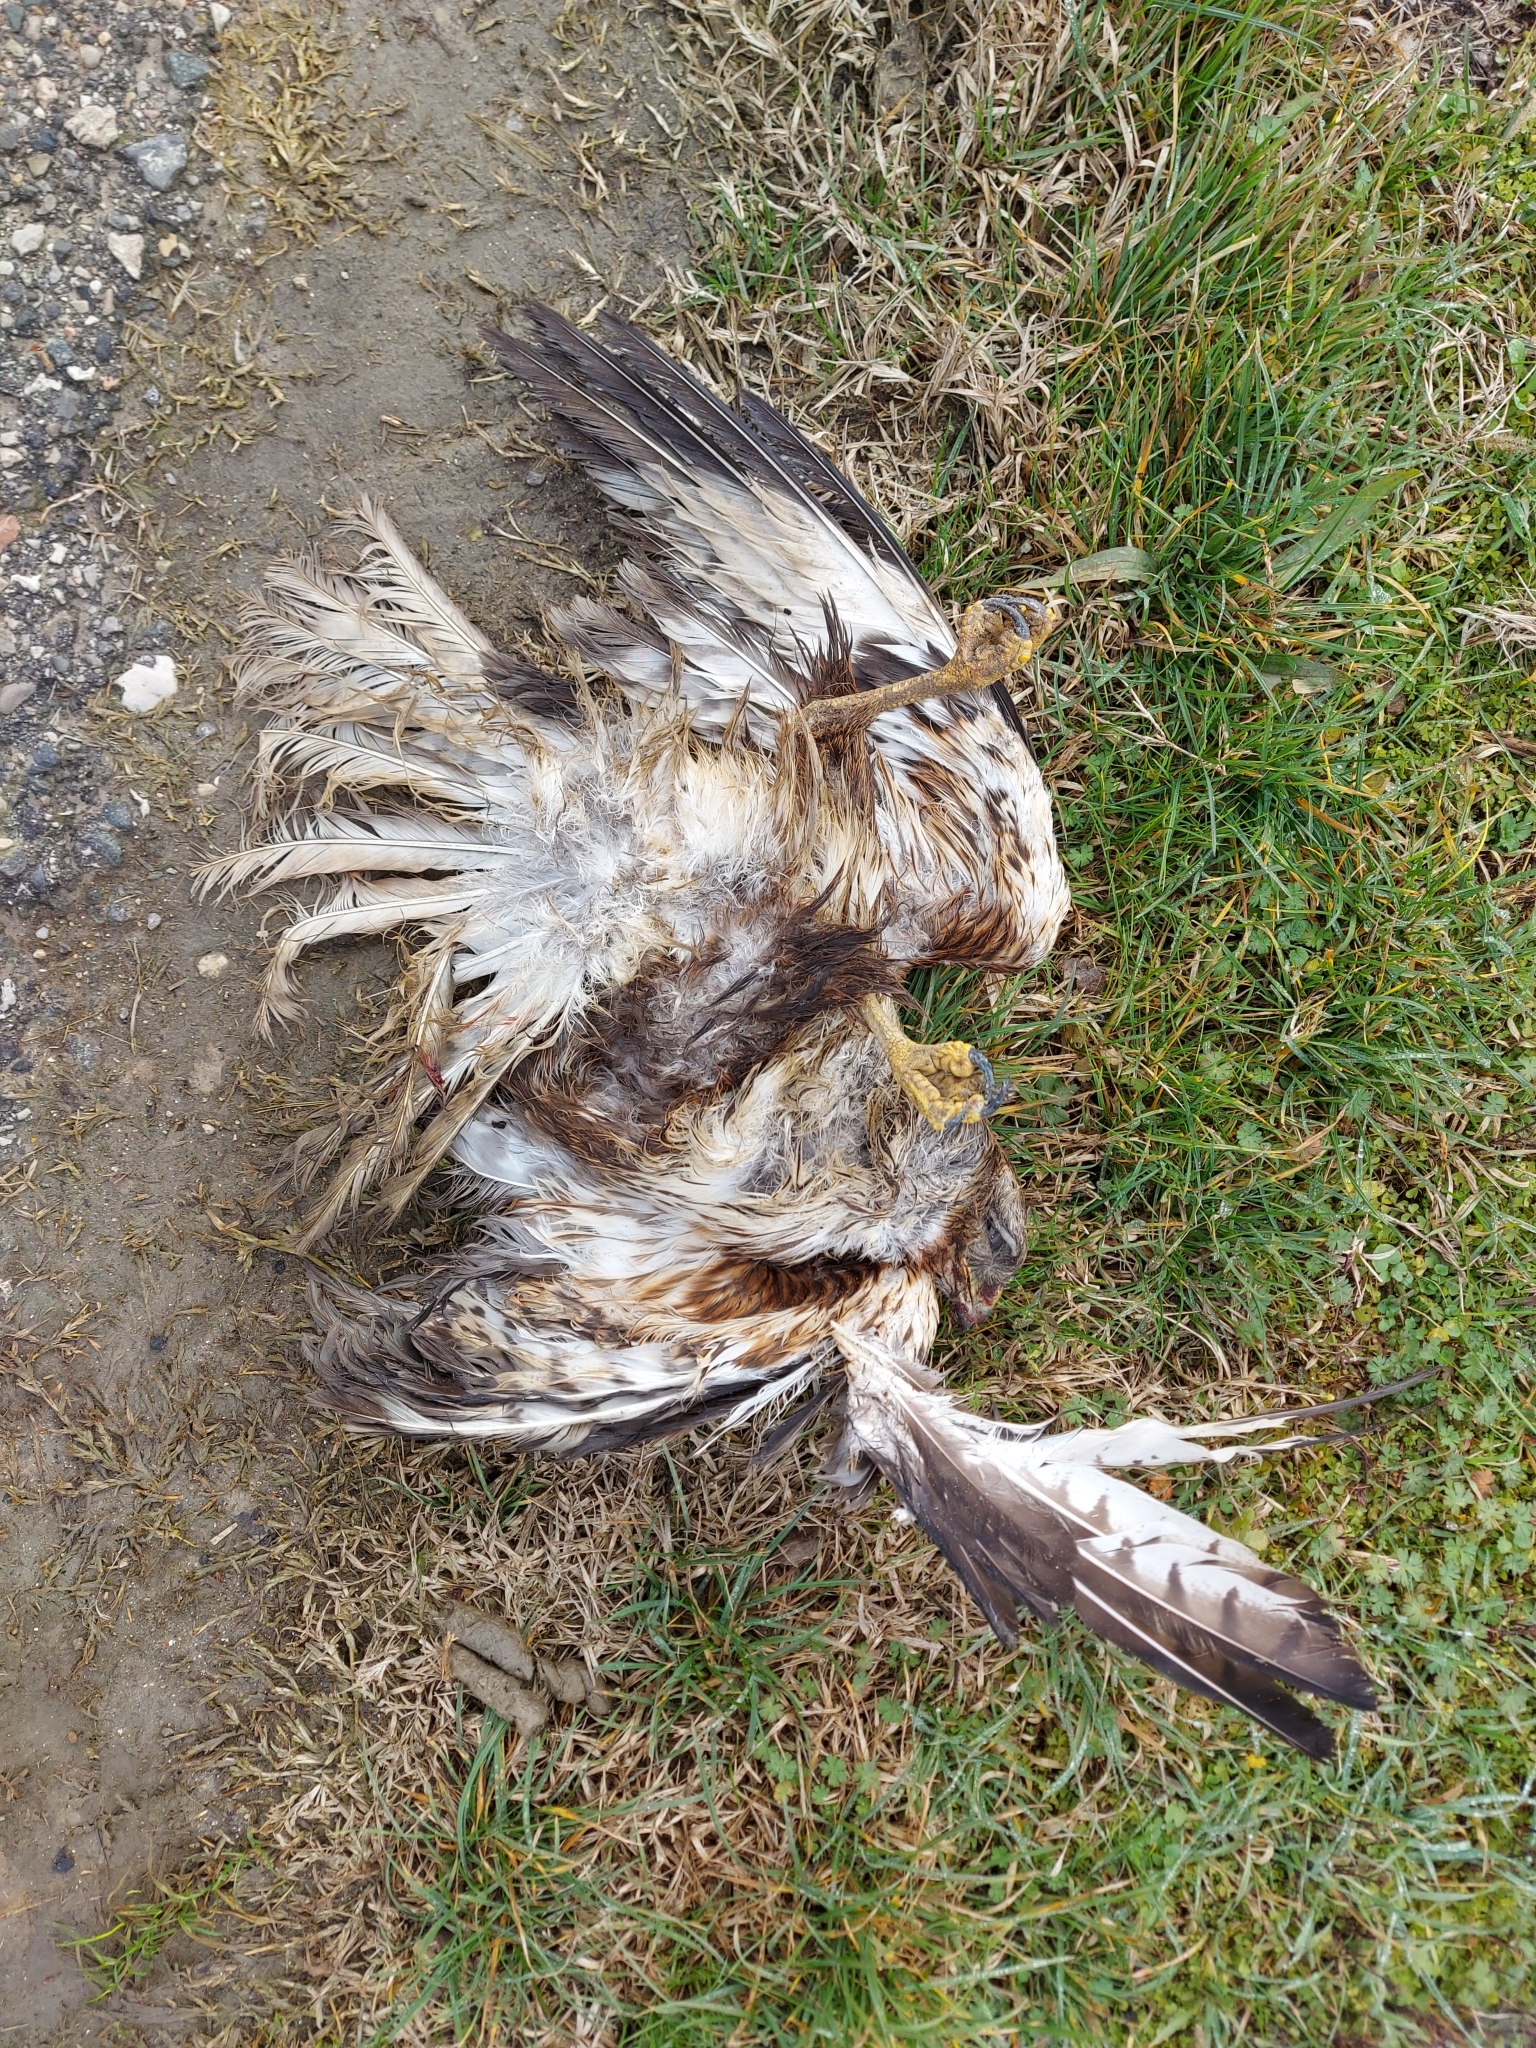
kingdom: Animalia
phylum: Chordata
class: Aves
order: Accipitriformes
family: Accipitridae
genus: Buteo
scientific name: Buteo buteo
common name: Common buzzard
